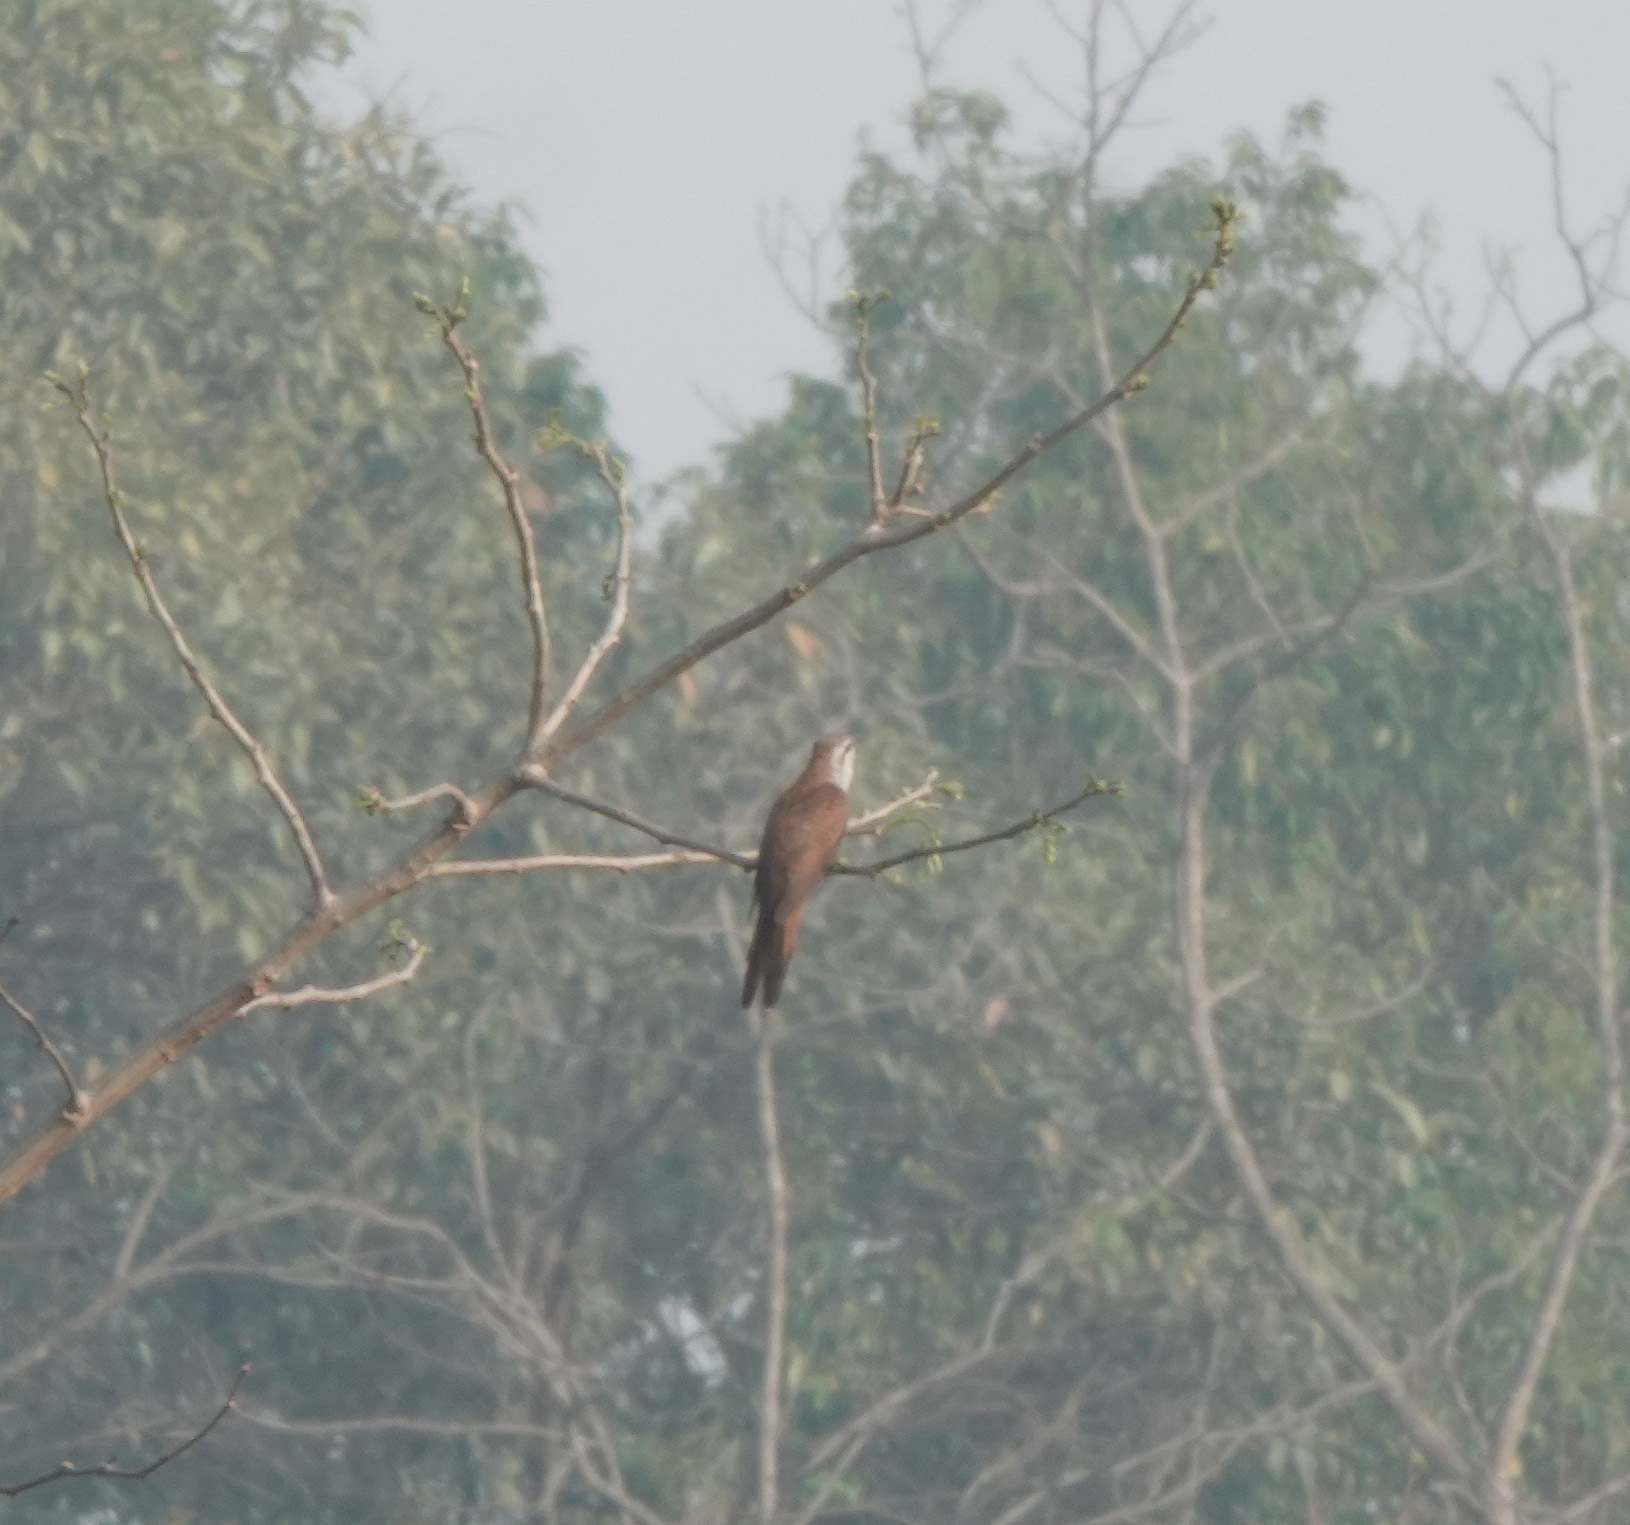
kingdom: Animalia
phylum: Chordata
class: Aves
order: Cuculiformes
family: Cuculidae
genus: Cacomantis
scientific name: Cacomantis sonneratii
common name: Banded bay cuckoo
